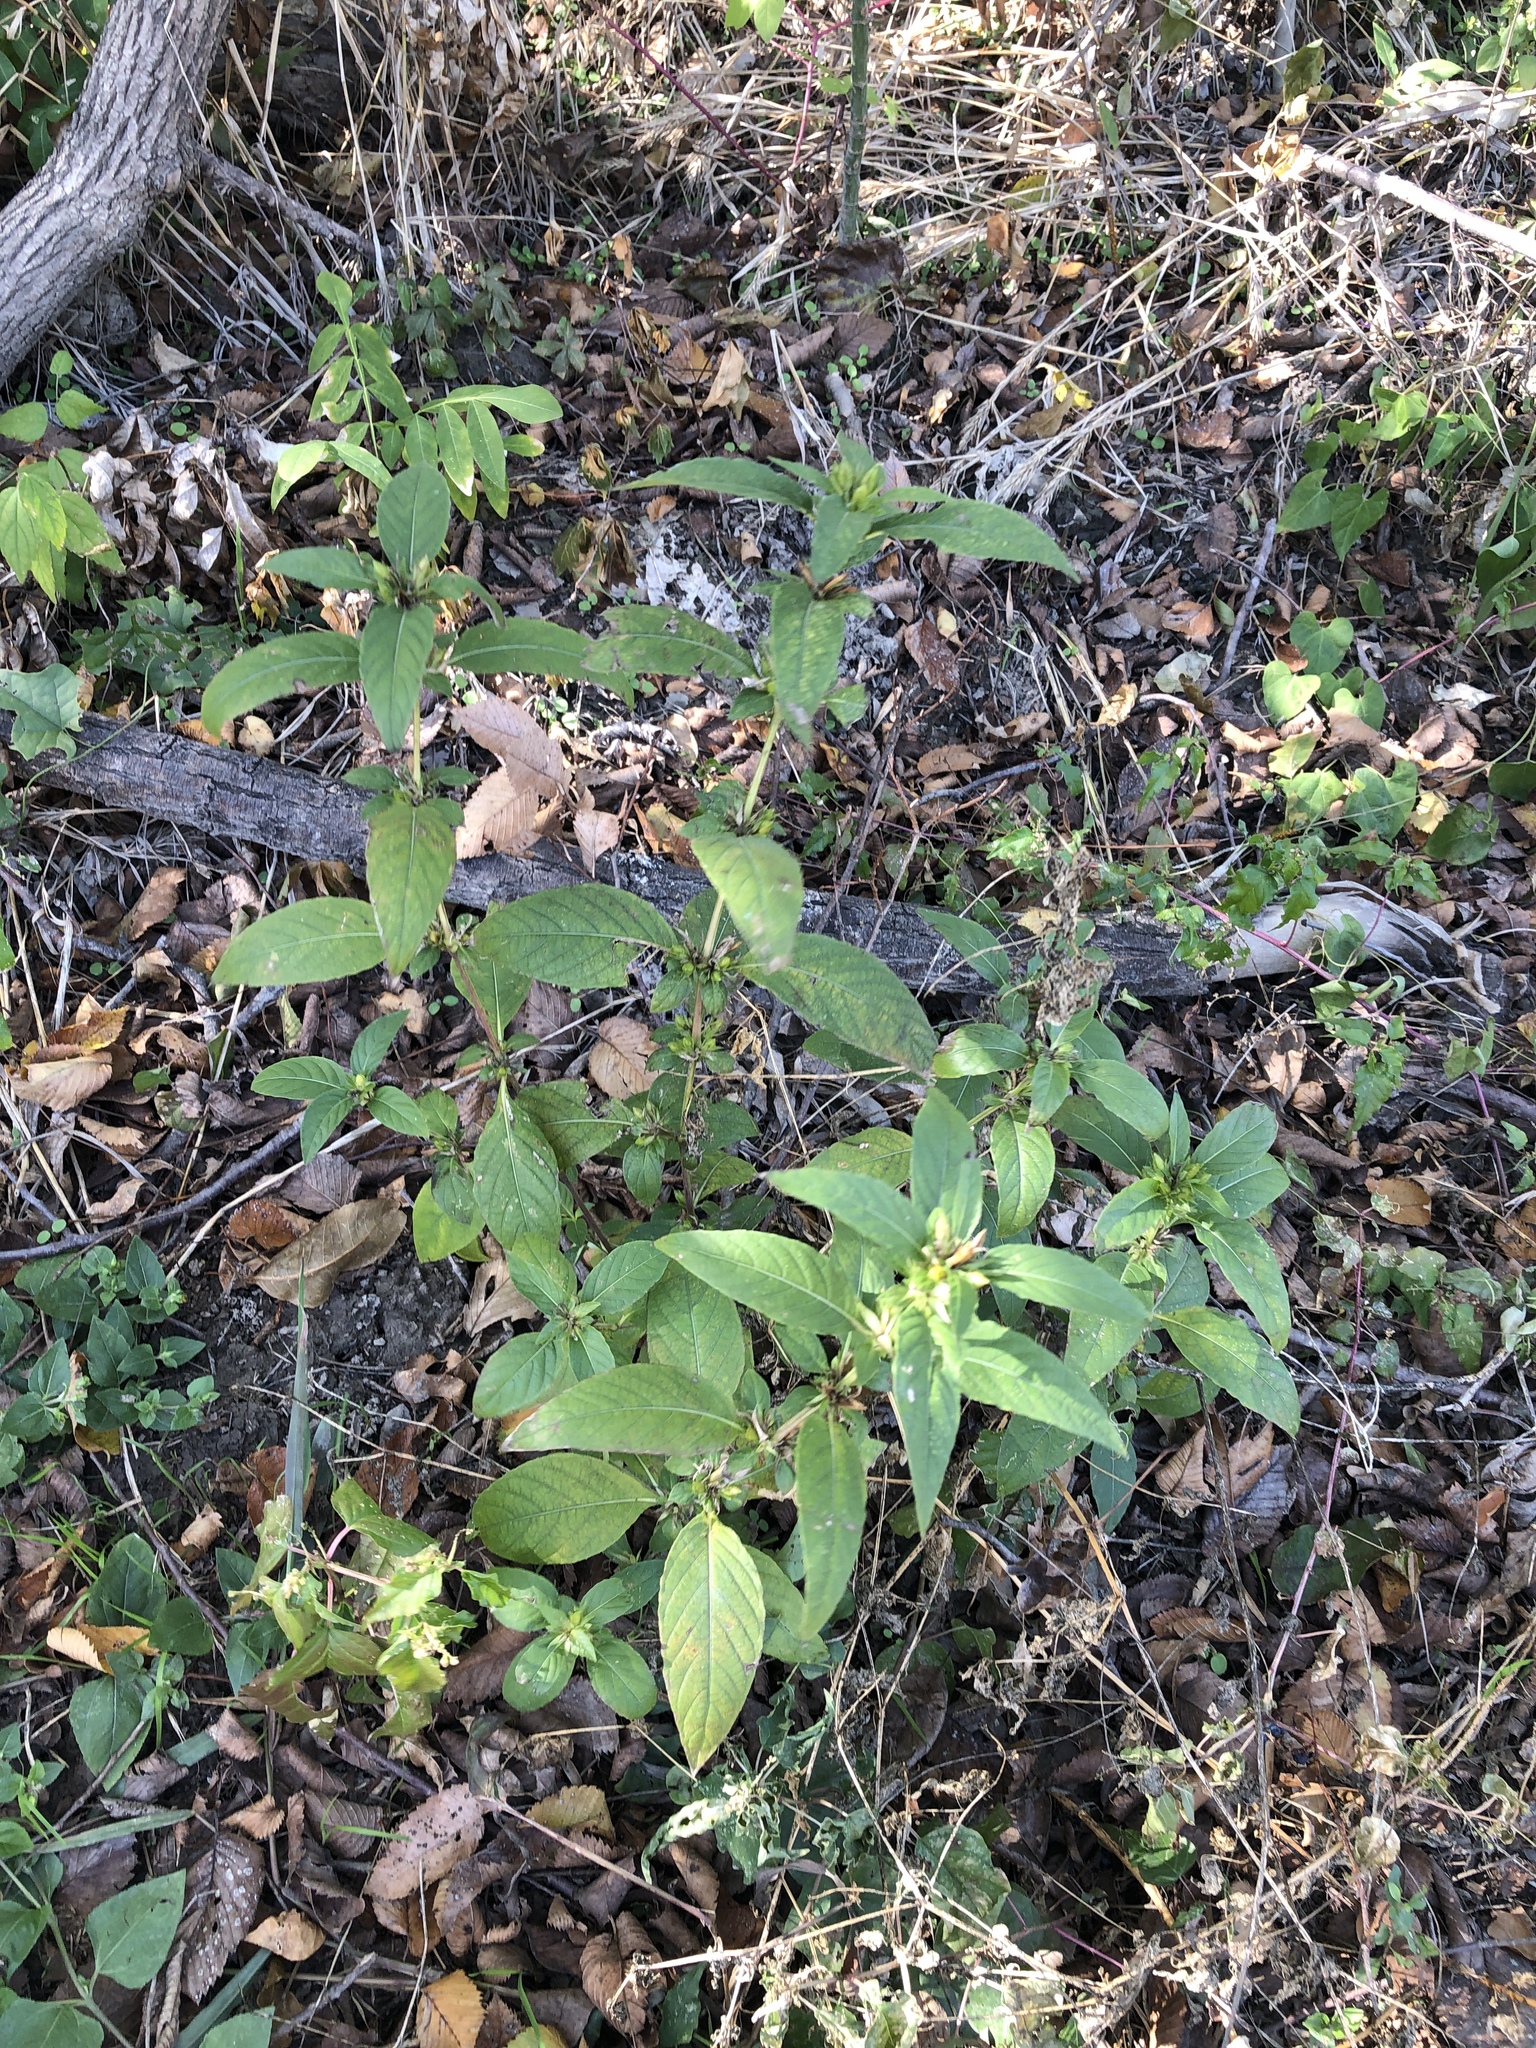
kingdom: Plantae
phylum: Tracheophyta
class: Magnoliopsida
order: Lamiales
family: Acanthaceae
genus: Ruellia
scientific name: Ruellia strepens
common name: Limestone wild petunia
